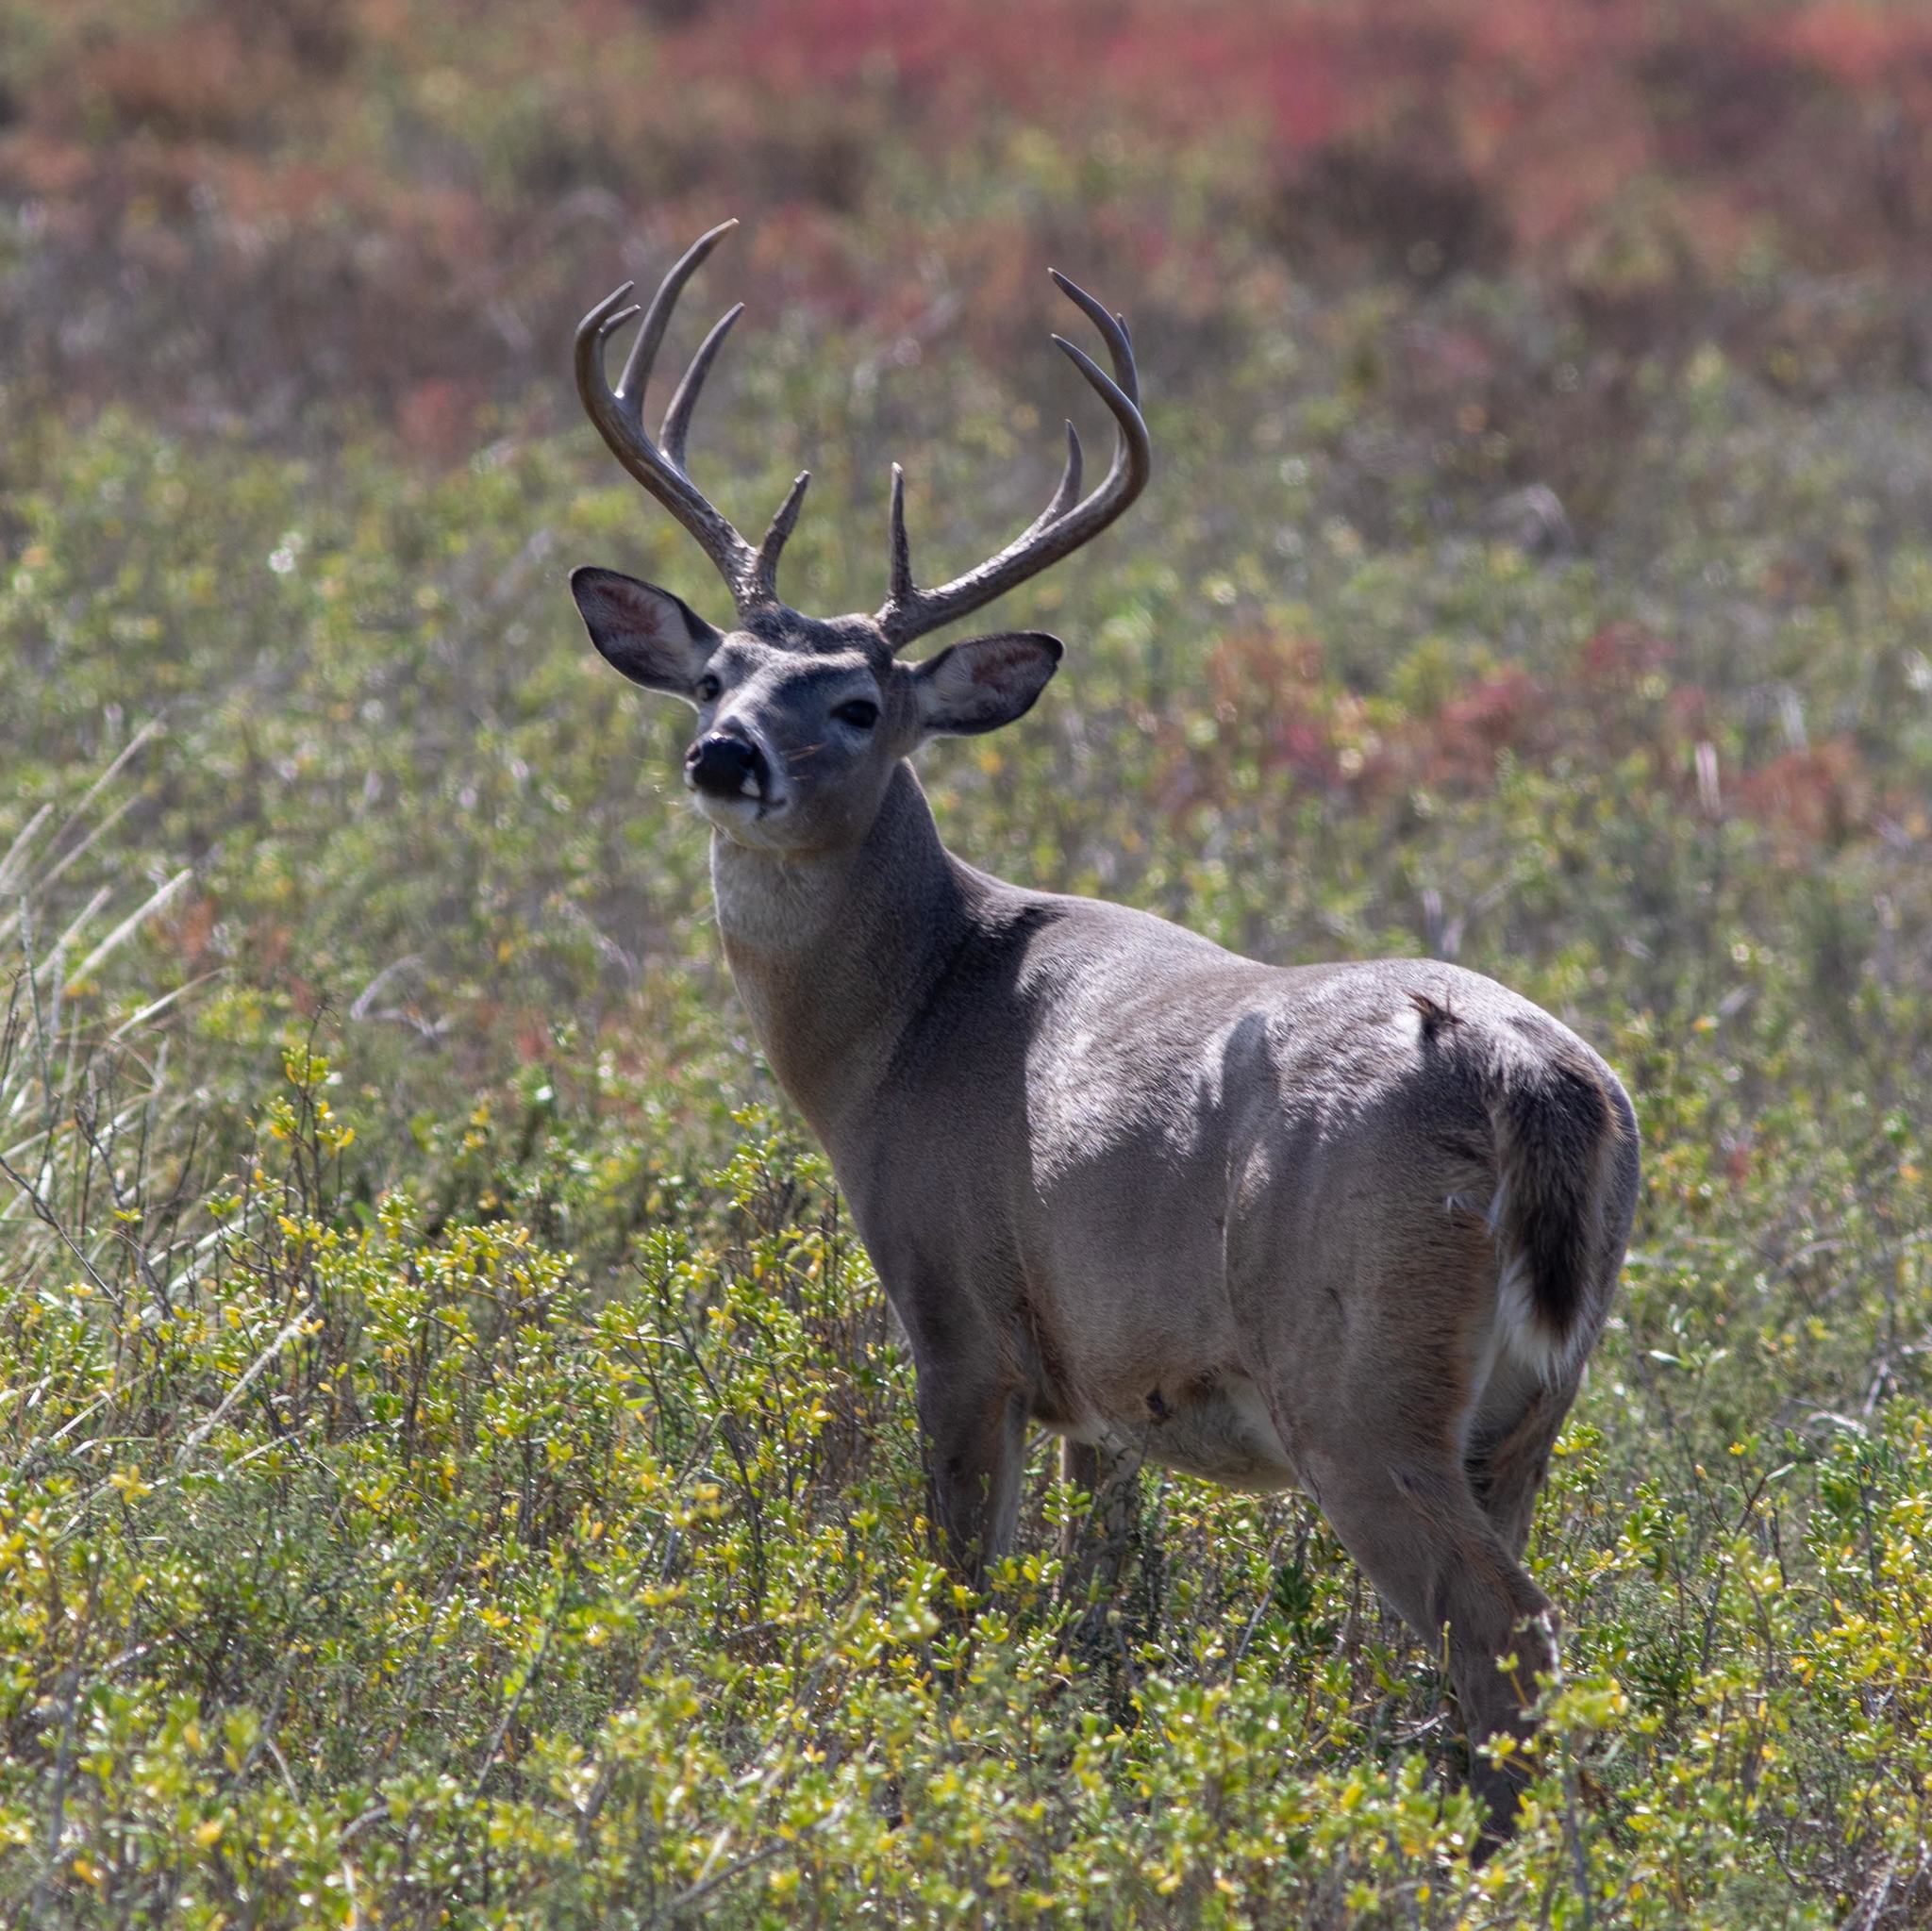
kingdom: Animalia
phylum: Chordata
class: Mammalia
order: Artiodactyla
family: Cervidae
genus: Odocoileus
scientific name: Odocoileus virginianus
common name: White-tailed deer
